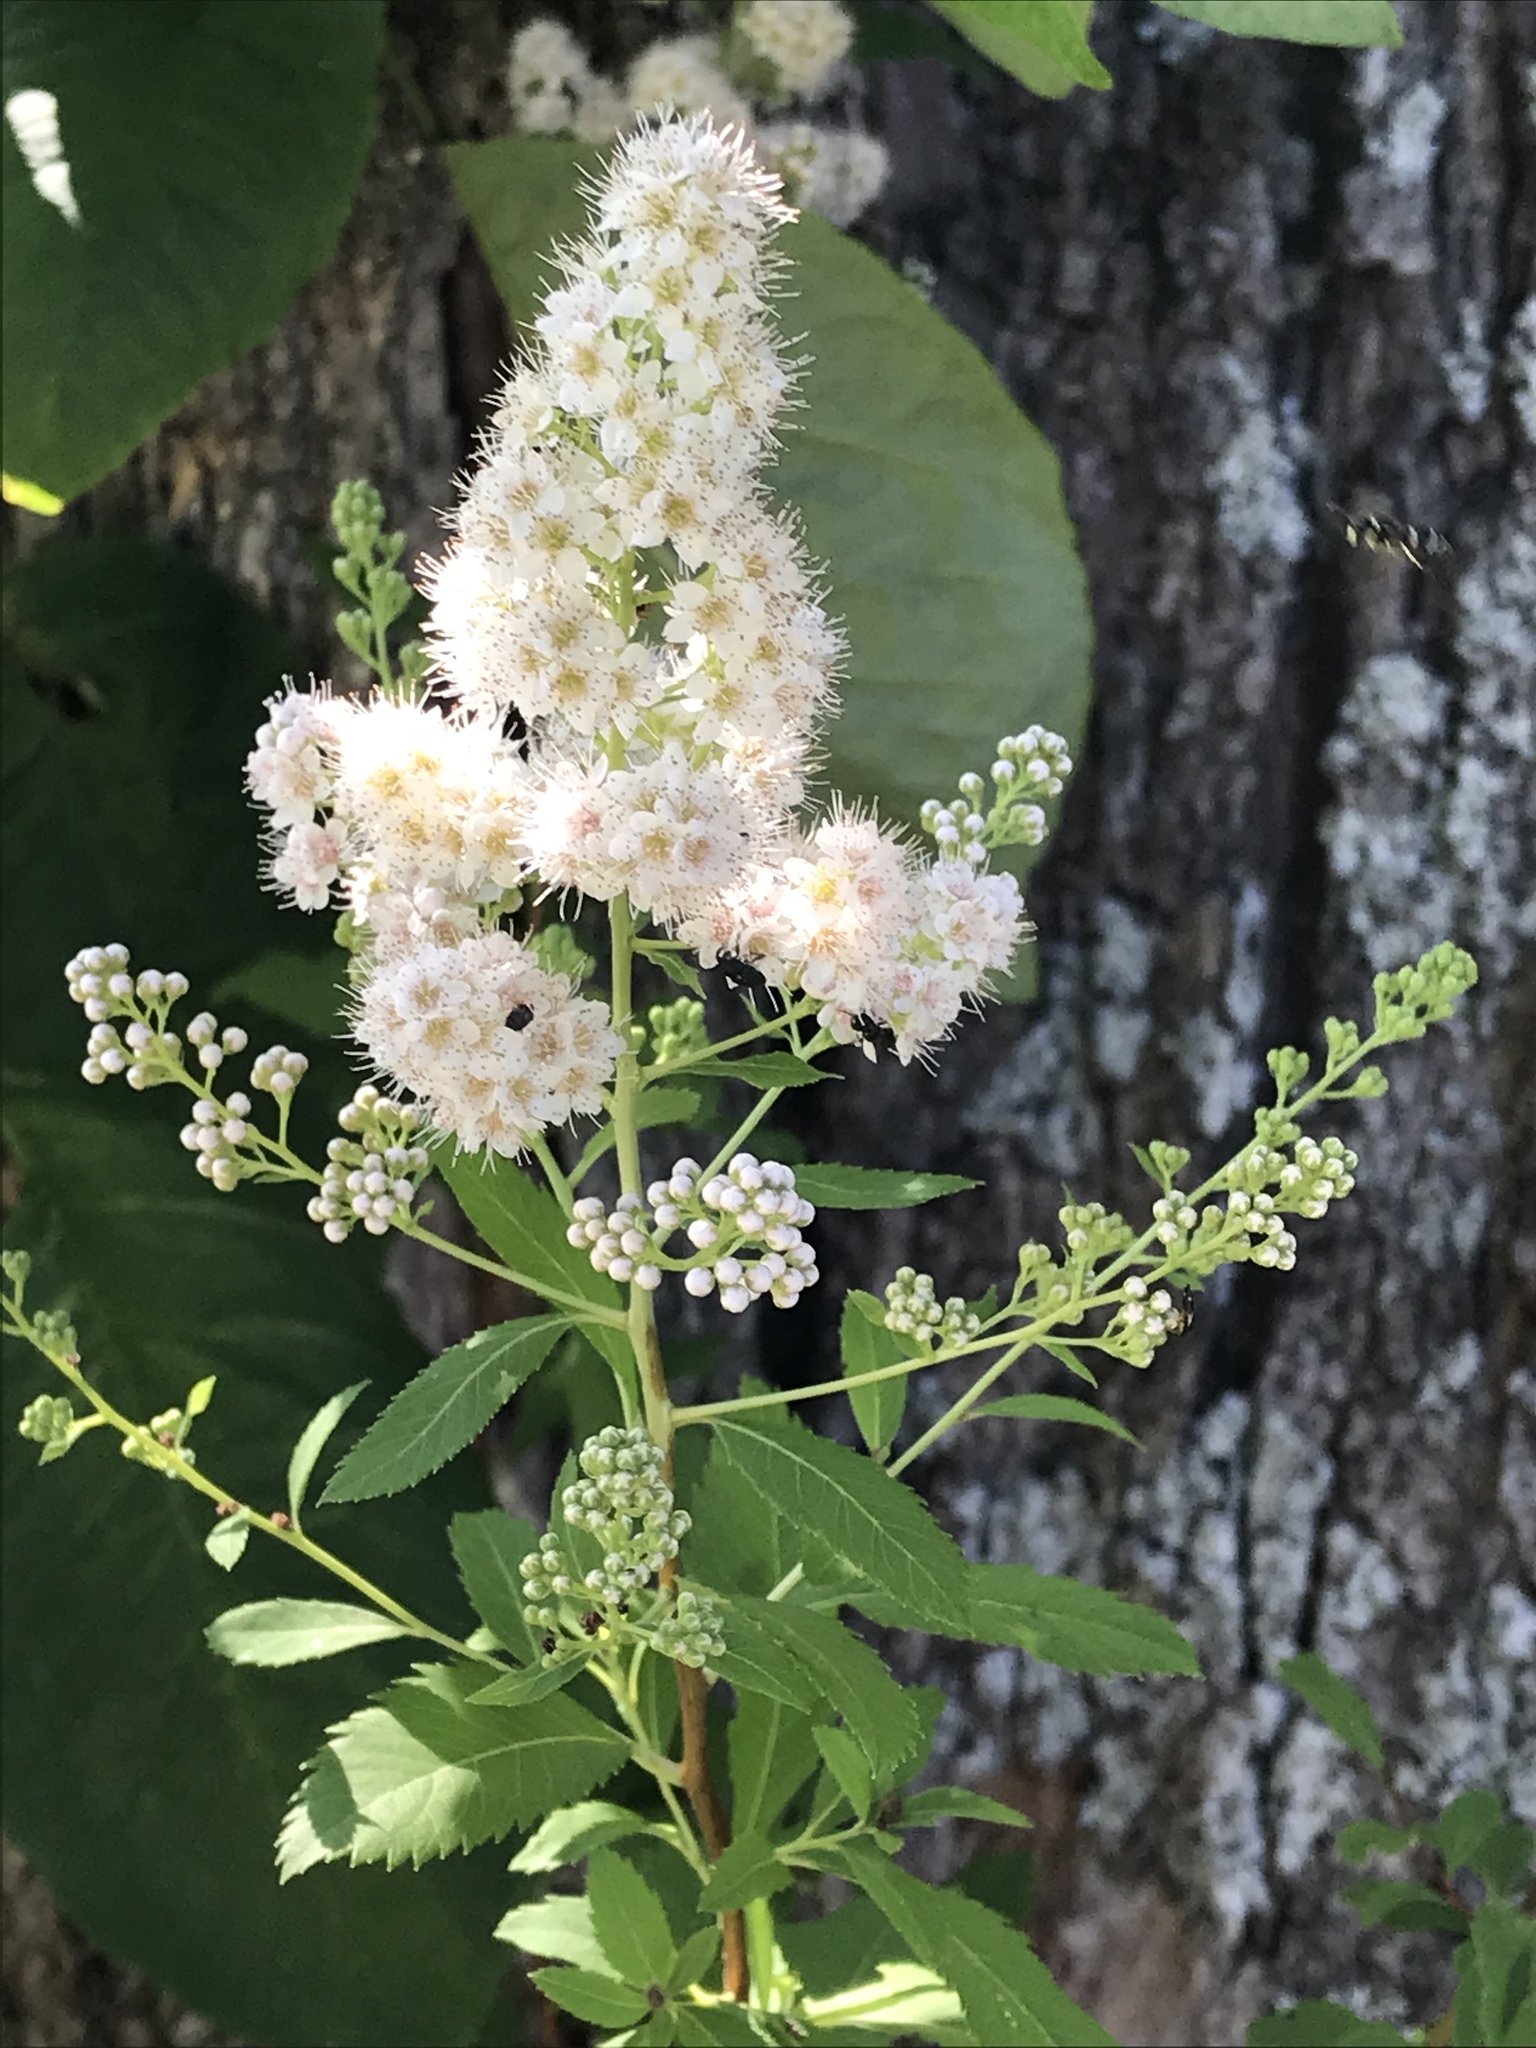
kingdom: Plantae
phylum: Tracheophyta
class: Magnoliopsida
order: Rosales
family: Rosaceae
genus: Spiraea
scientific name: Spiraea alba
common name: Pale bridewort
